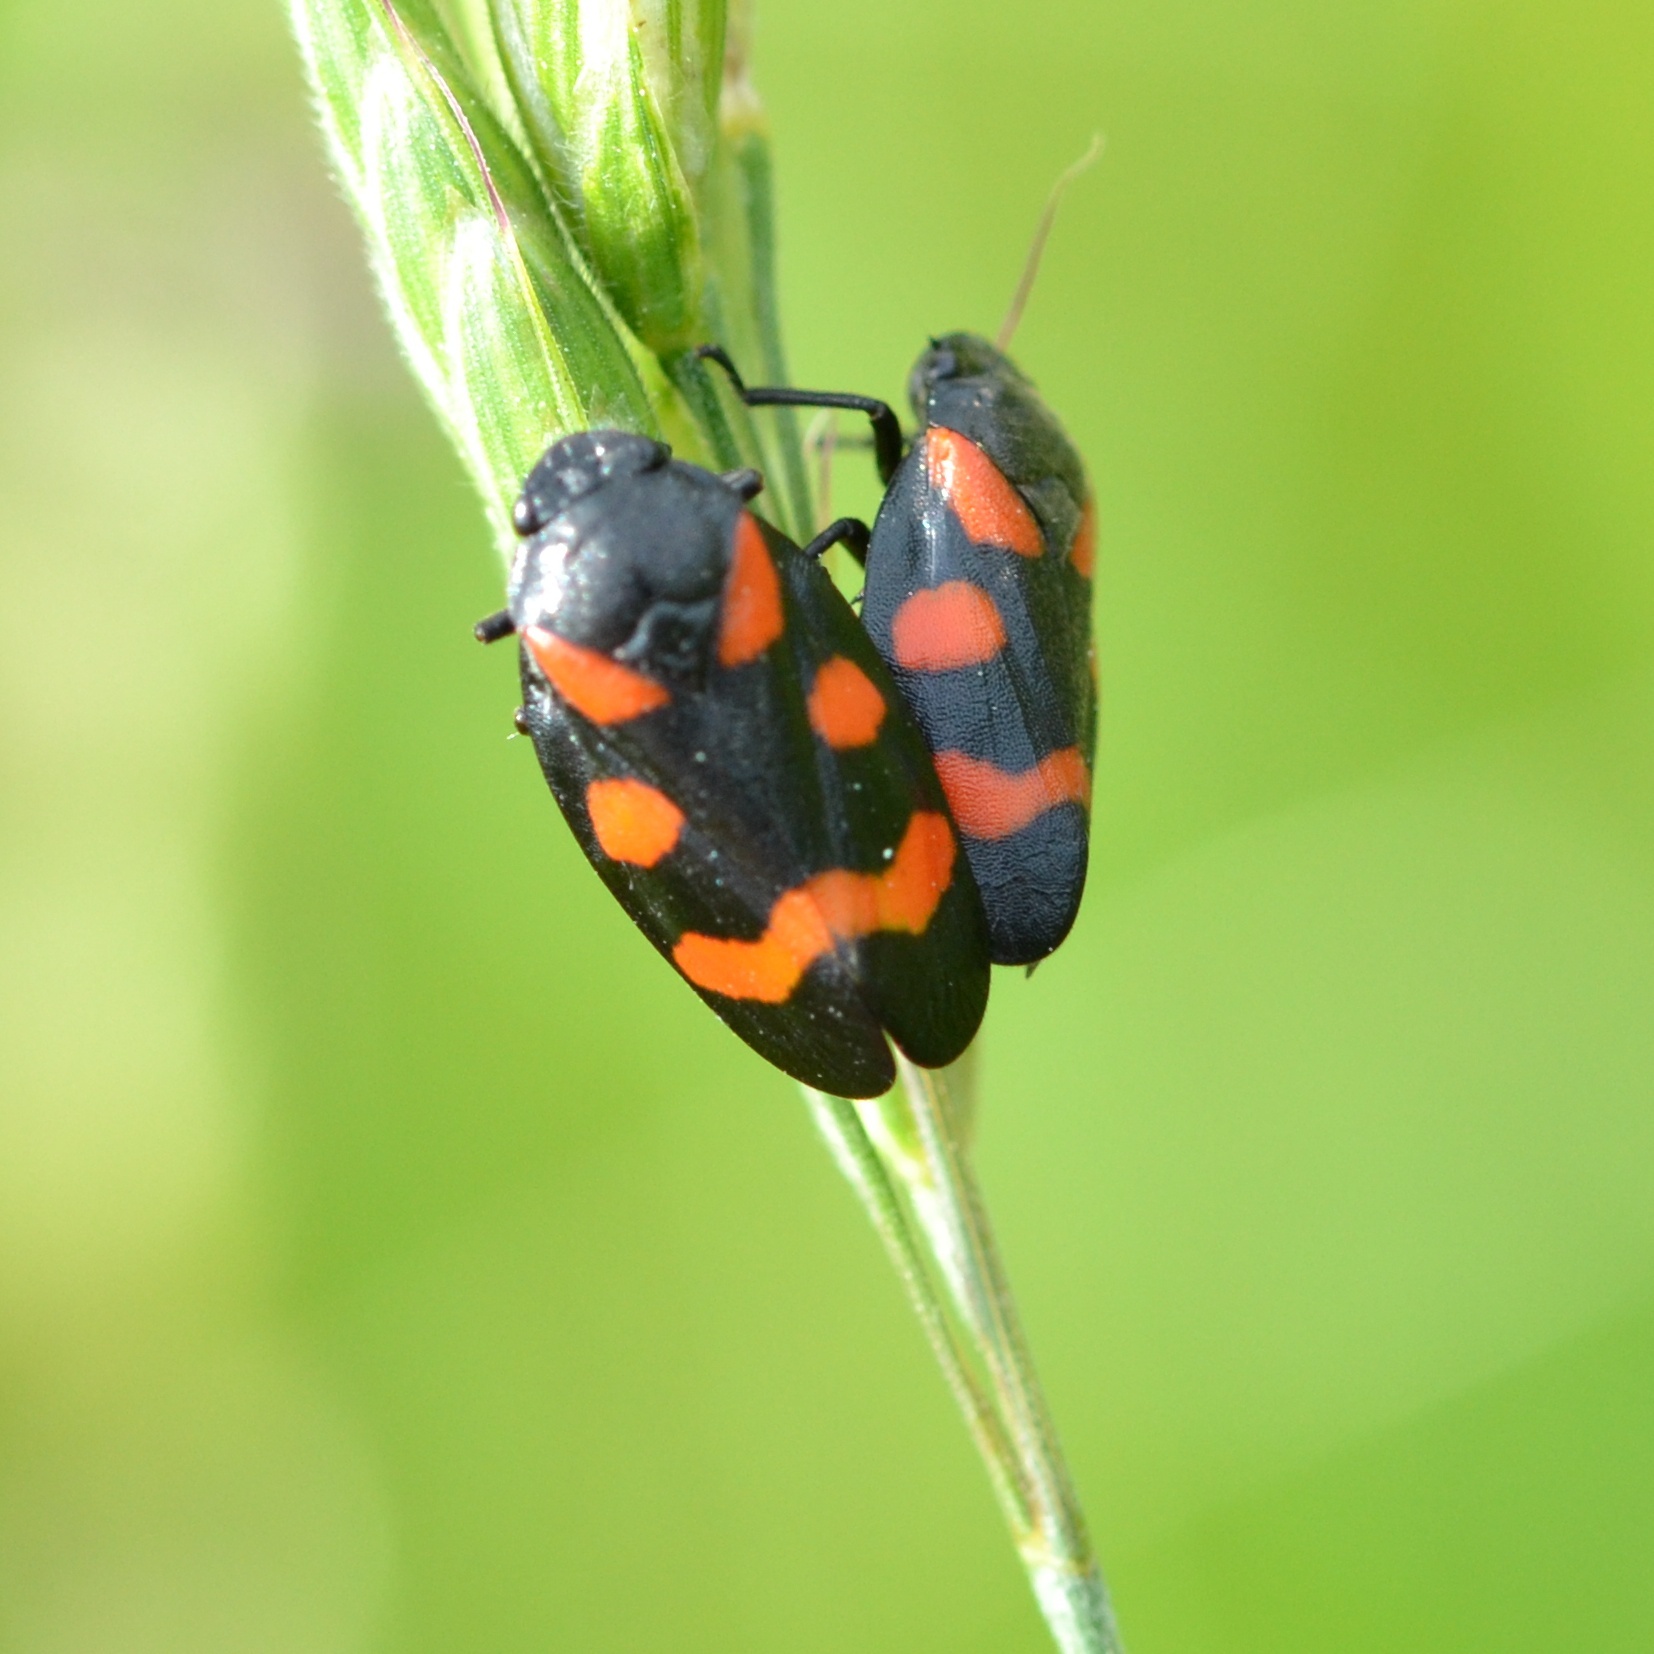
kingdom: Animalia
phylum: Arthropoda
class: Insecta
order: Hemiptera
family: Cercopidae
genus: Cercopis
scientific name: Cercopis sanguinolenta
